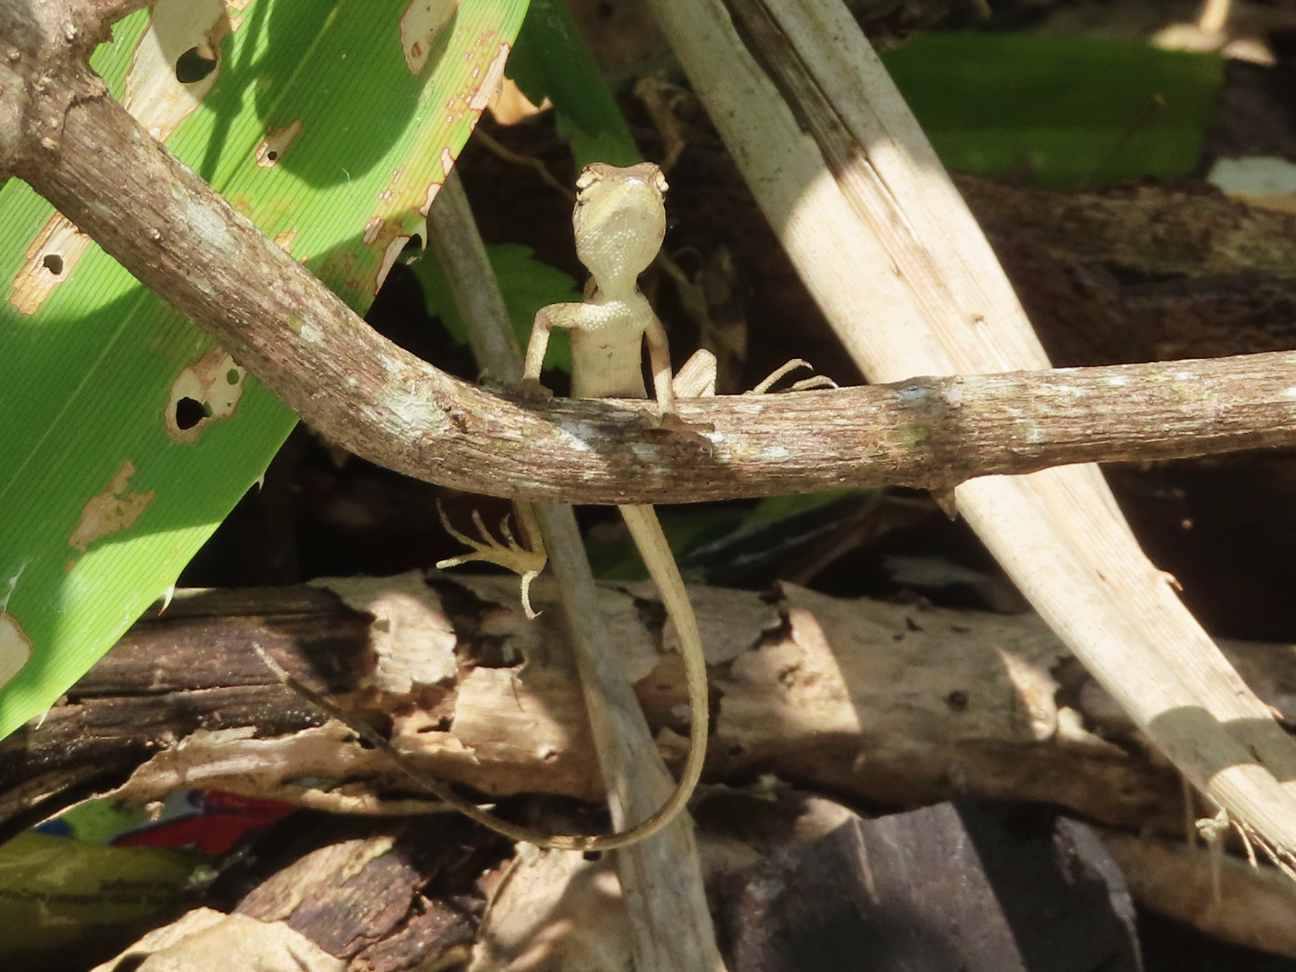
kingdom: Animalia
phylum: Chordata
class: Squamata
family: Agamidae
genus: Calotes
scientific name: Calotes versicolor
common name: Oriental garden lizard
